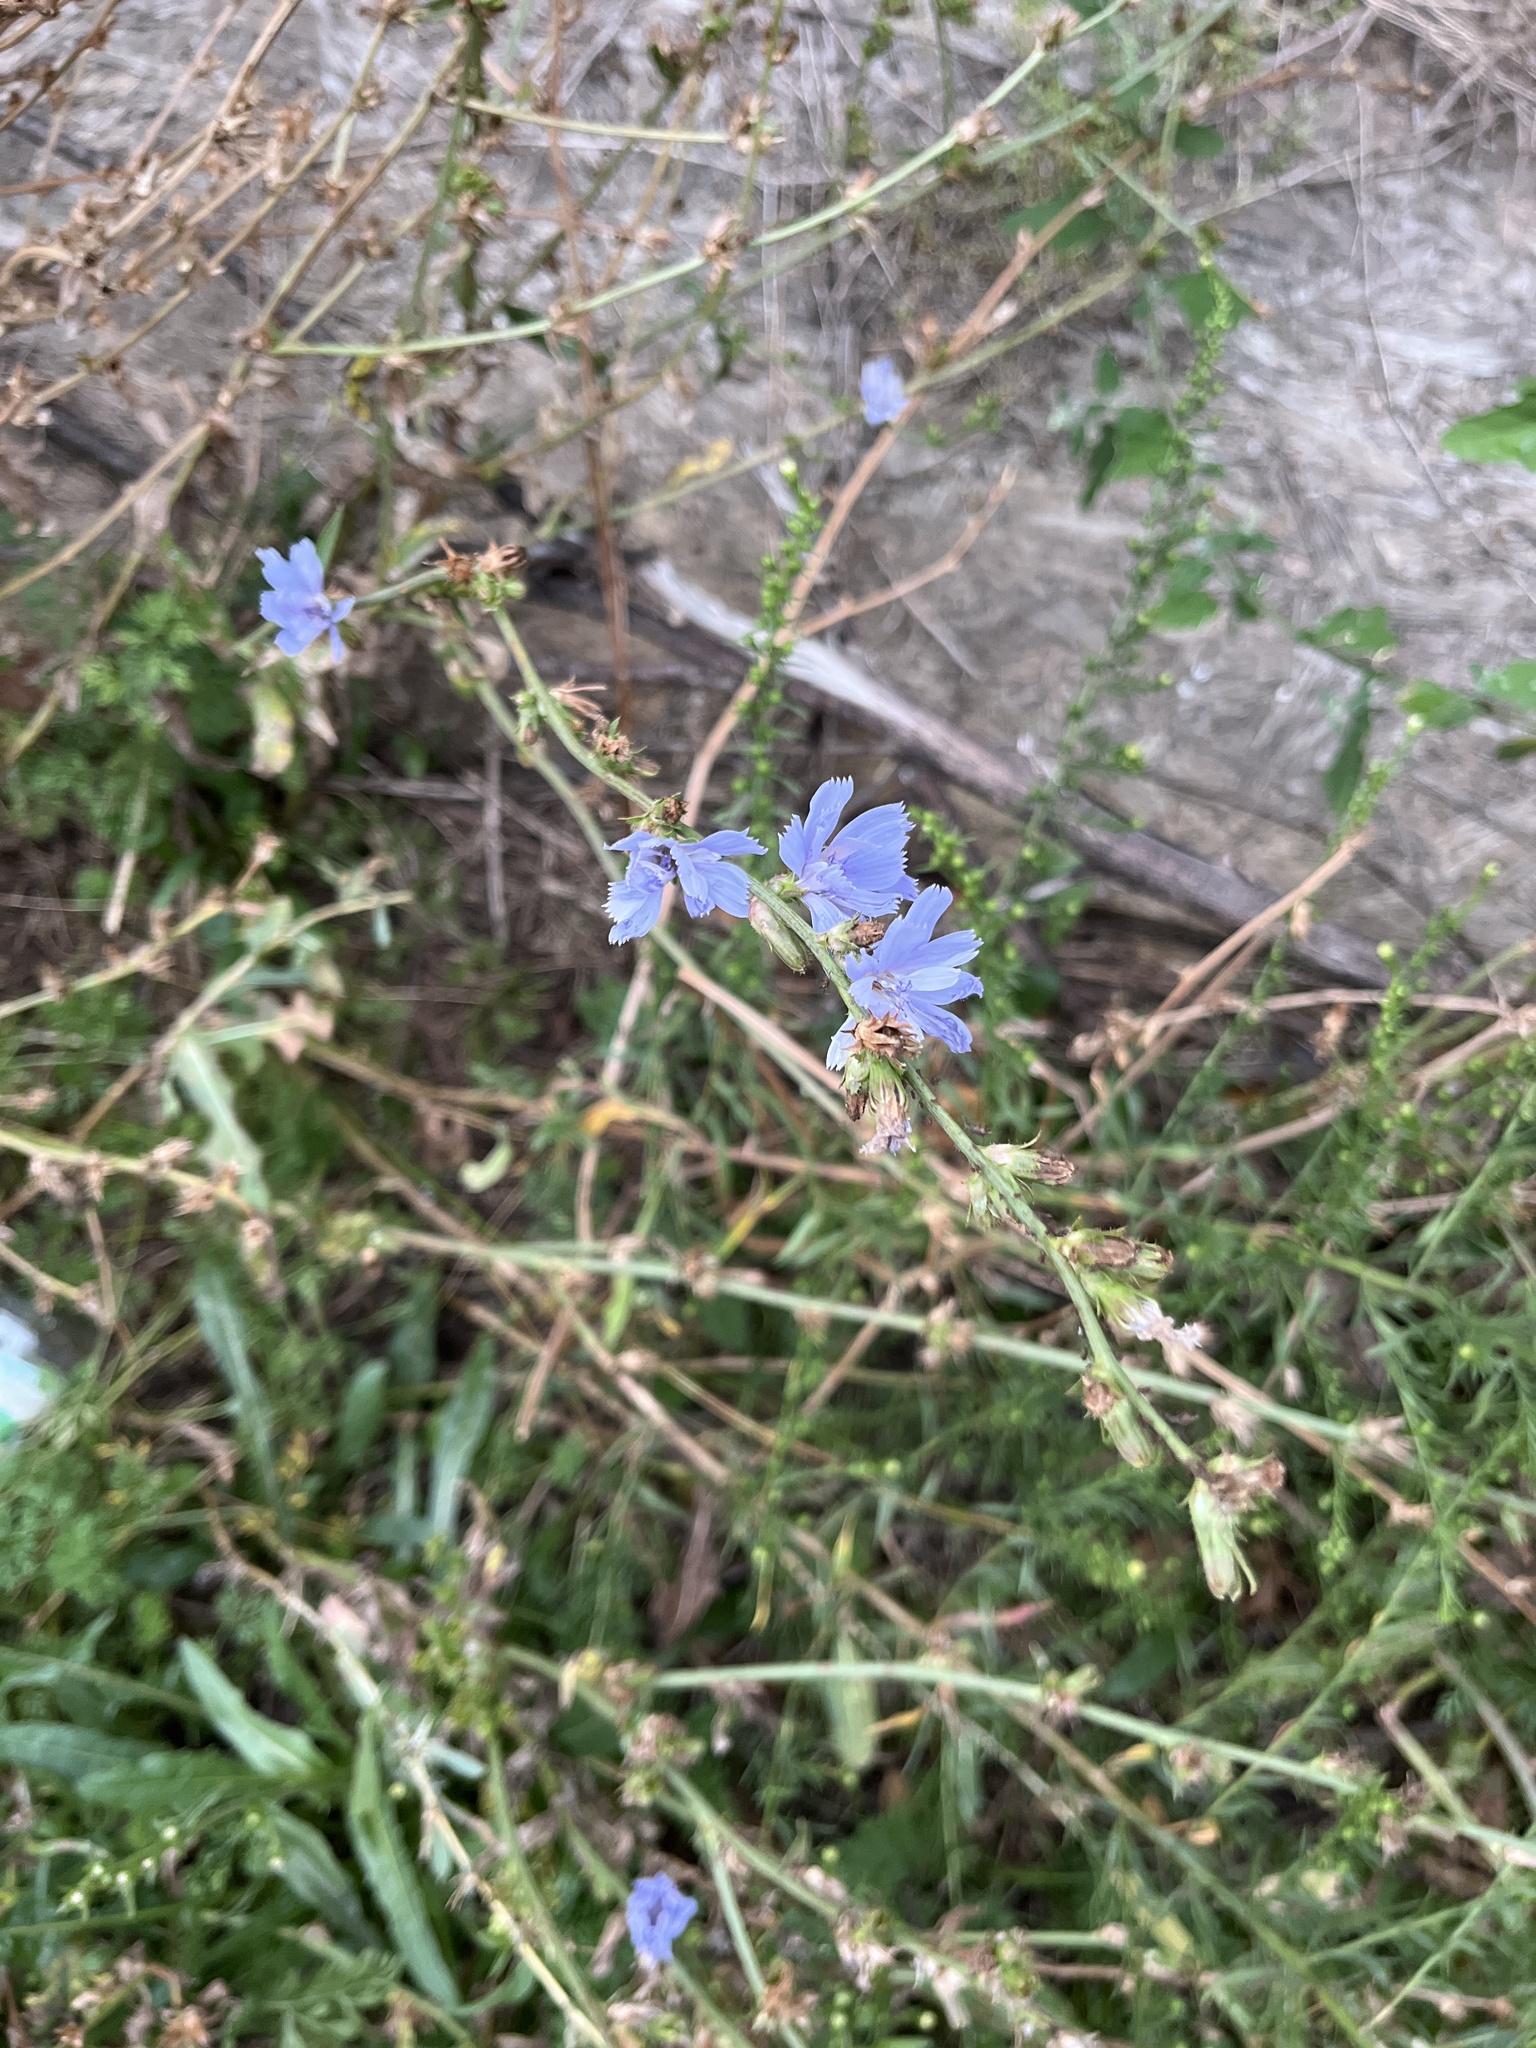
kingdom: Plantae
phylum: Tracheophyta
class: Magnoliopsida
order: Asterales
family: Asteraceae
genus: Cichorium
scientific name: Cichorium intybus
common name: Chicory
